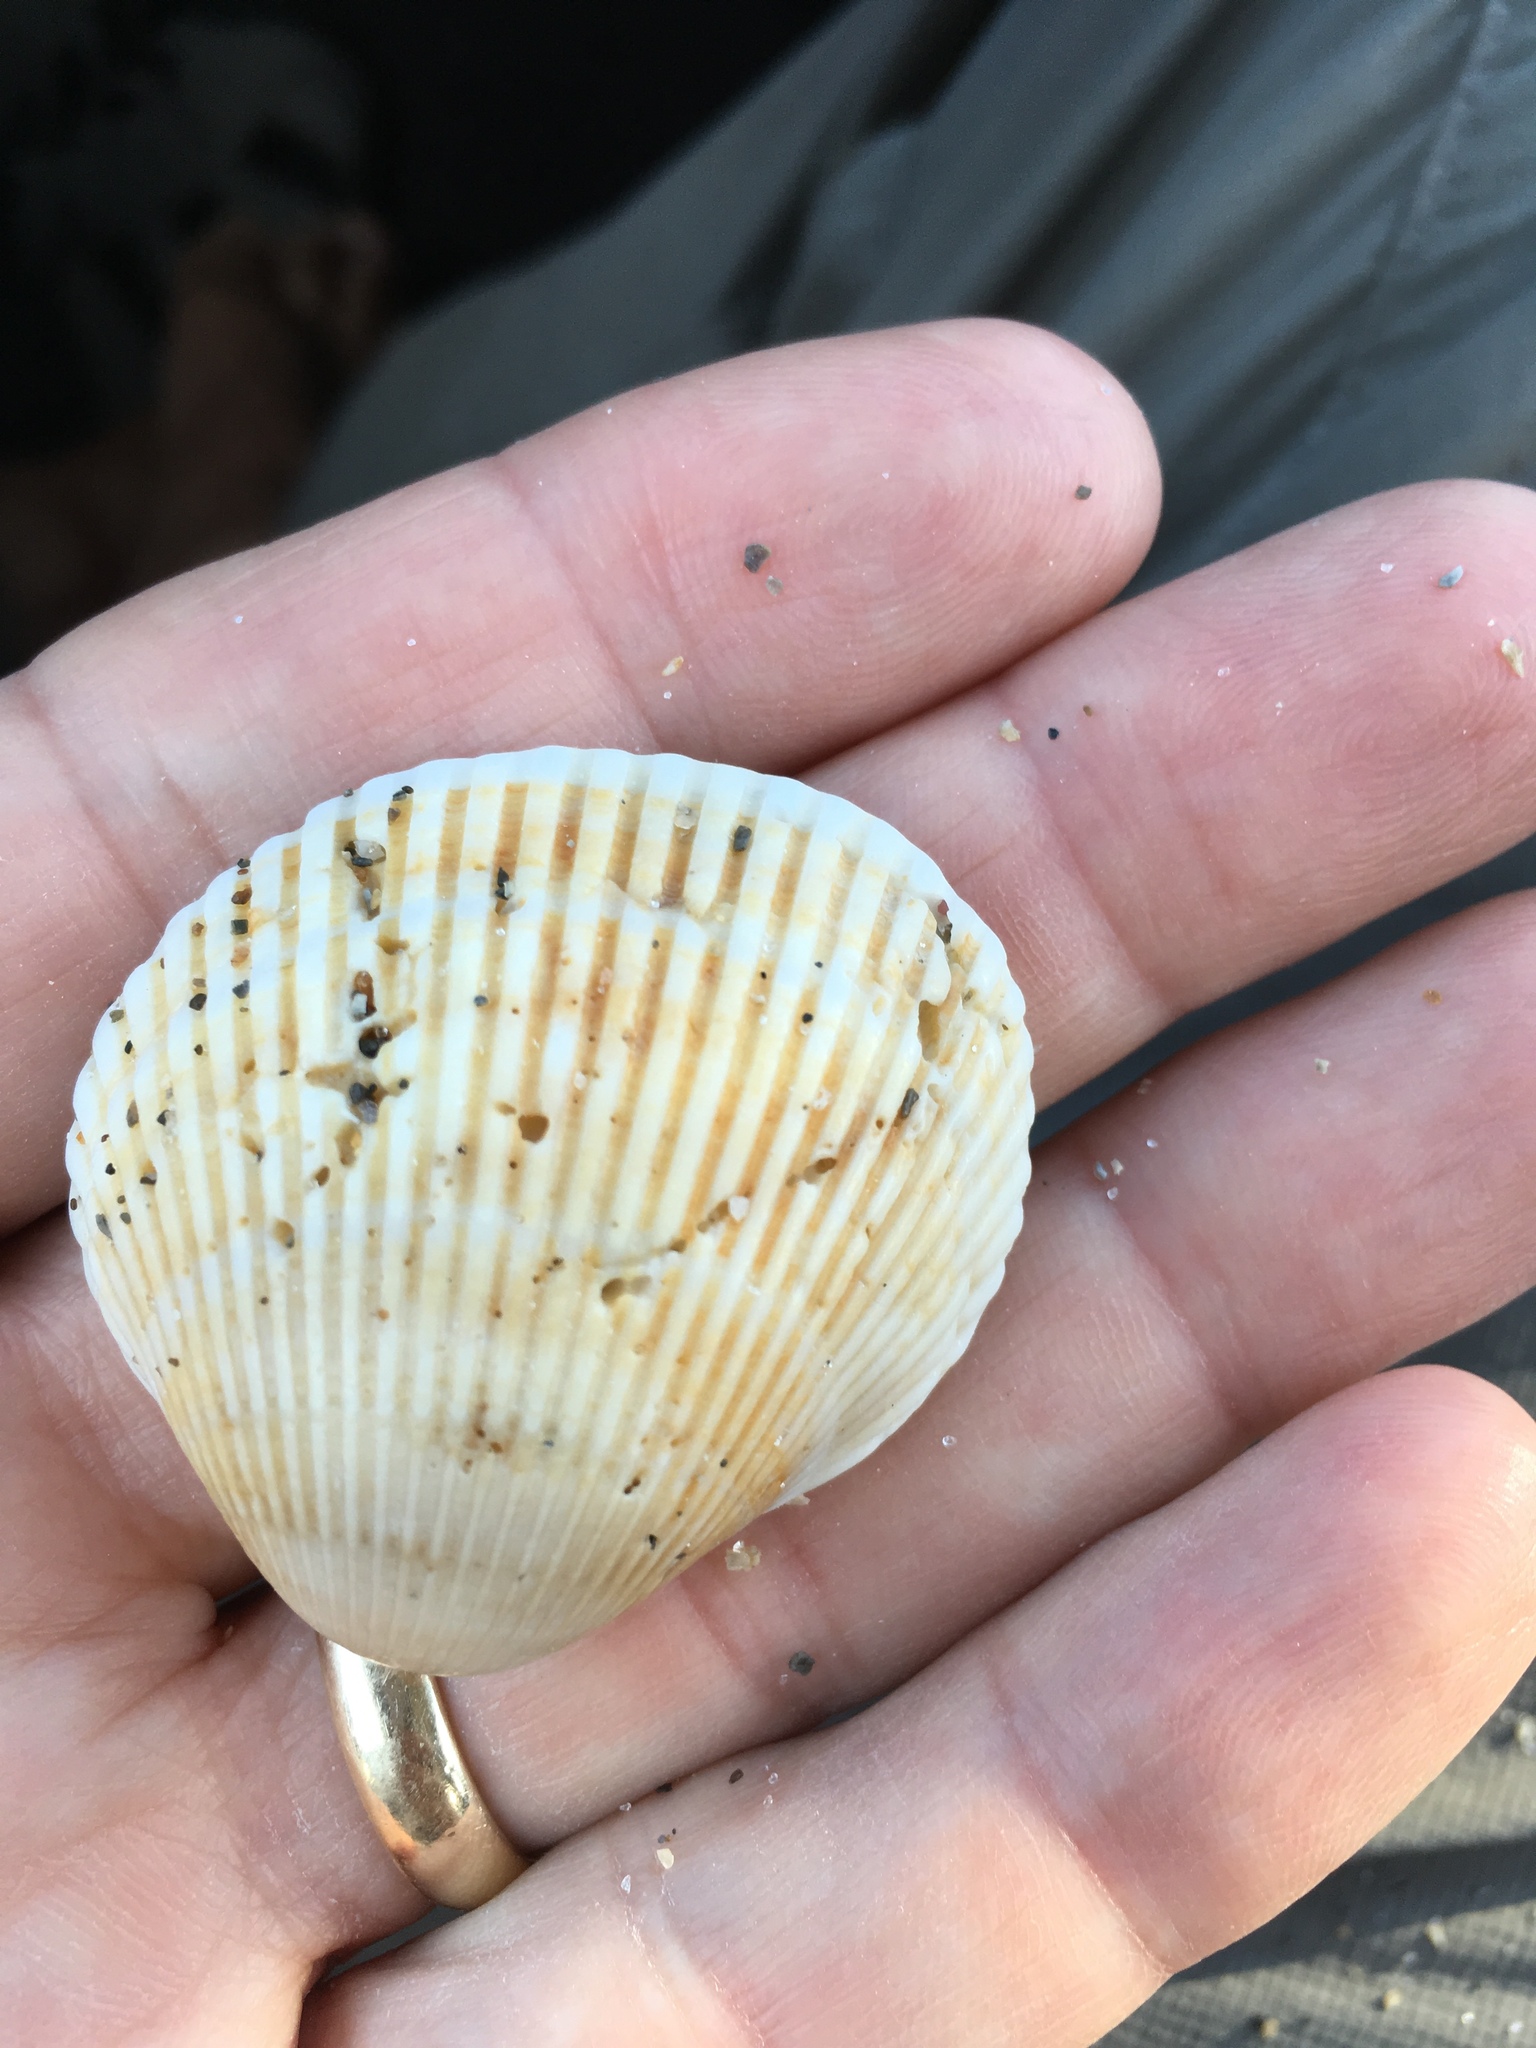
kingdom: Animalia
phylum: Mollusca
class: Bivalvia
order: Arcida
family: Arcidae
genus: Lunarca
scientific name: Lunarca ovalis
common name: Blood ark
